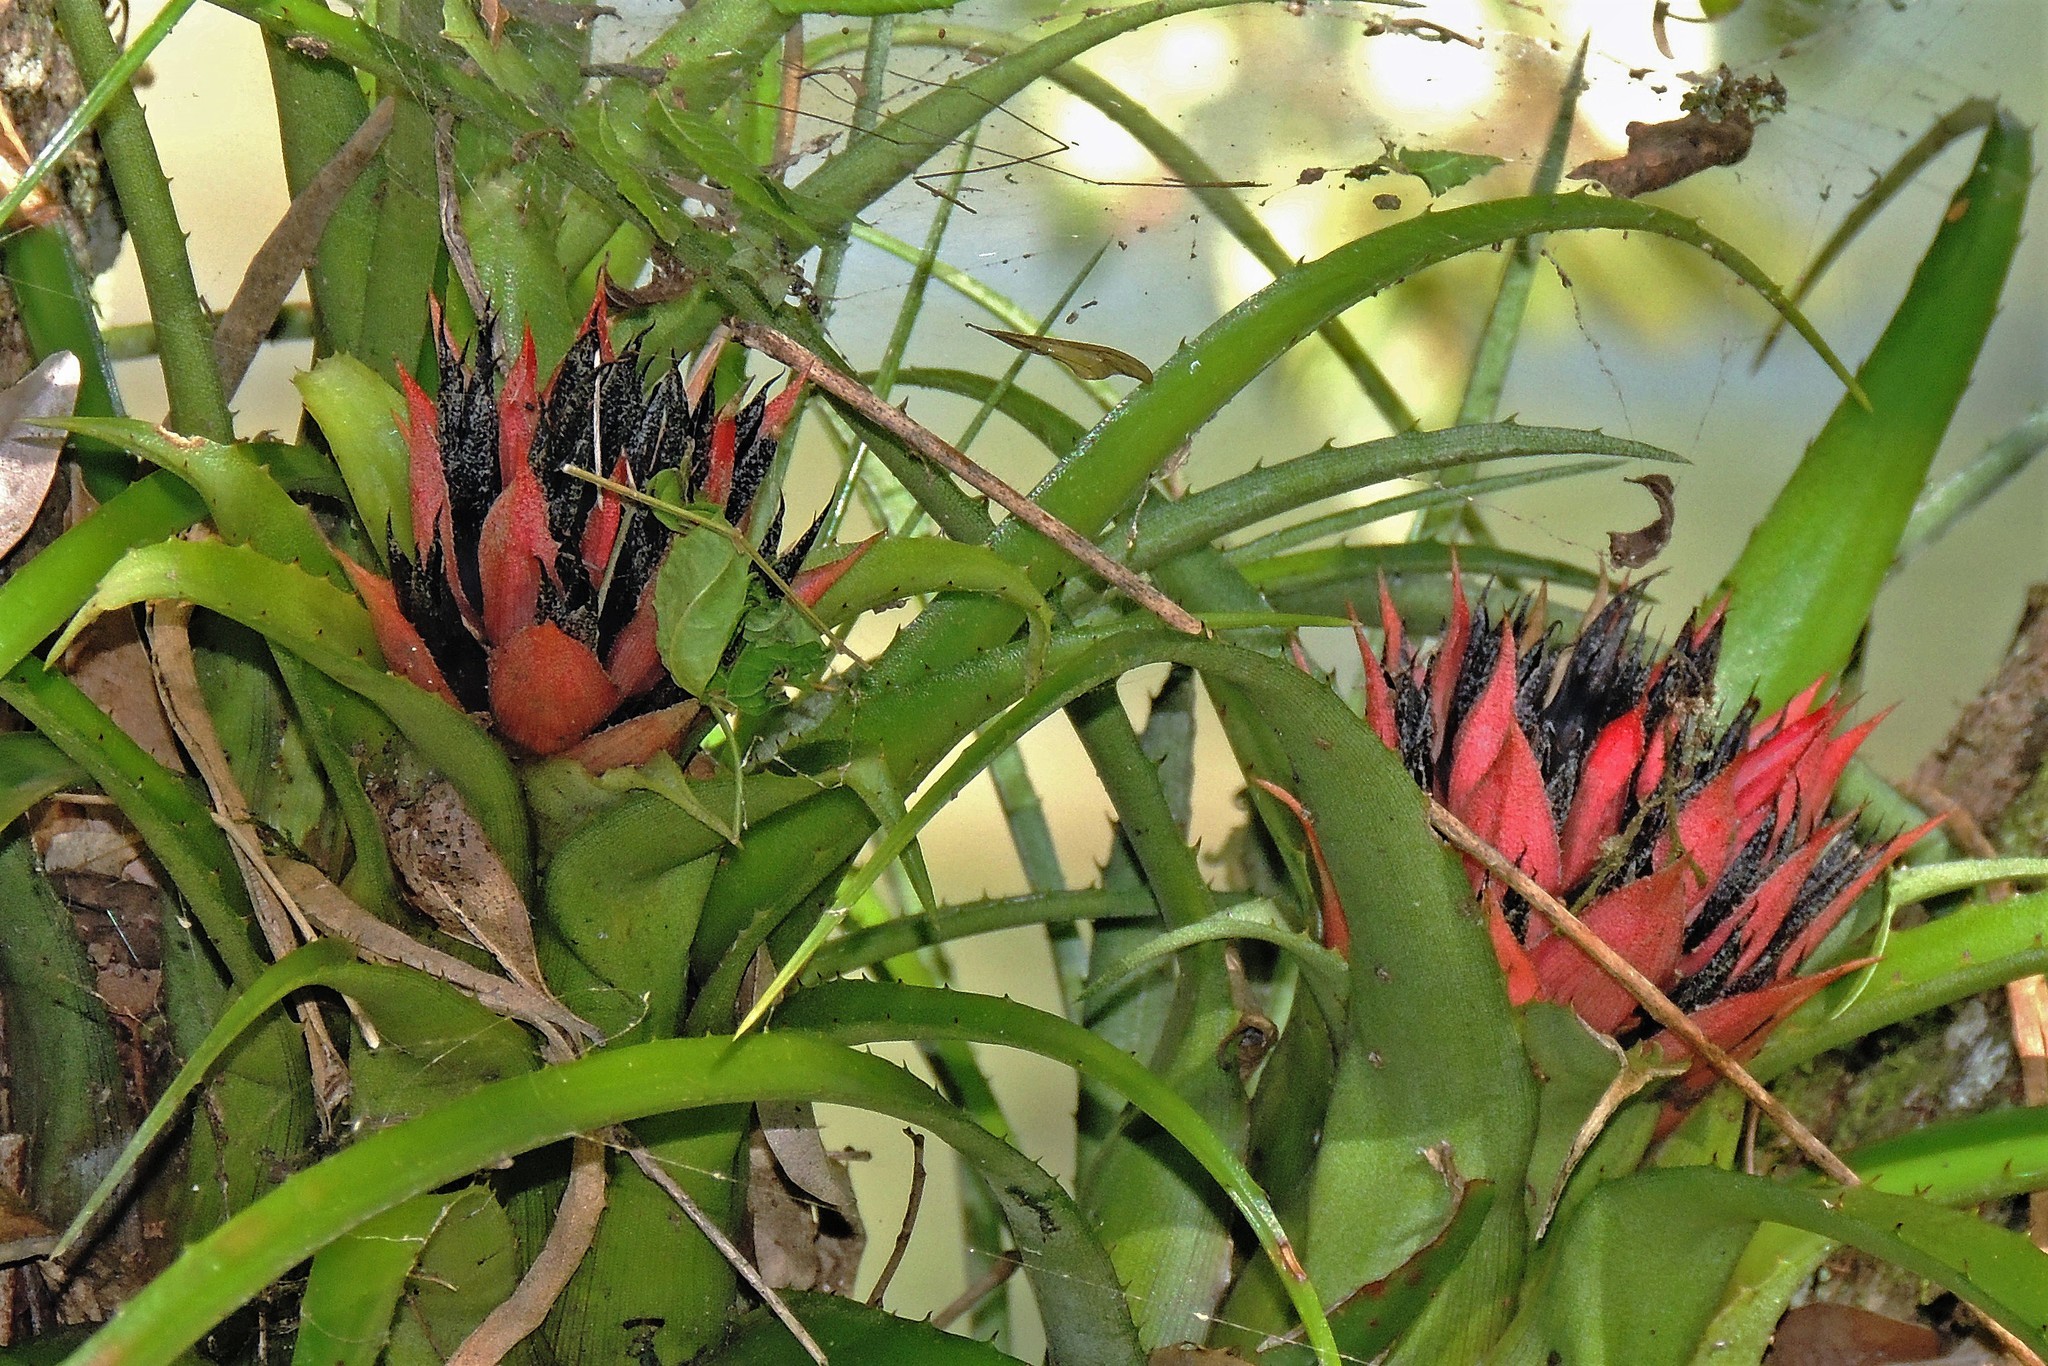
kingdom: Plantae
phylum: Tracheophyta
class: Liliopsida
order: Poales
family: Bromeliaceae
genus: Aechmea
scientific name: Aechmea recurvata
